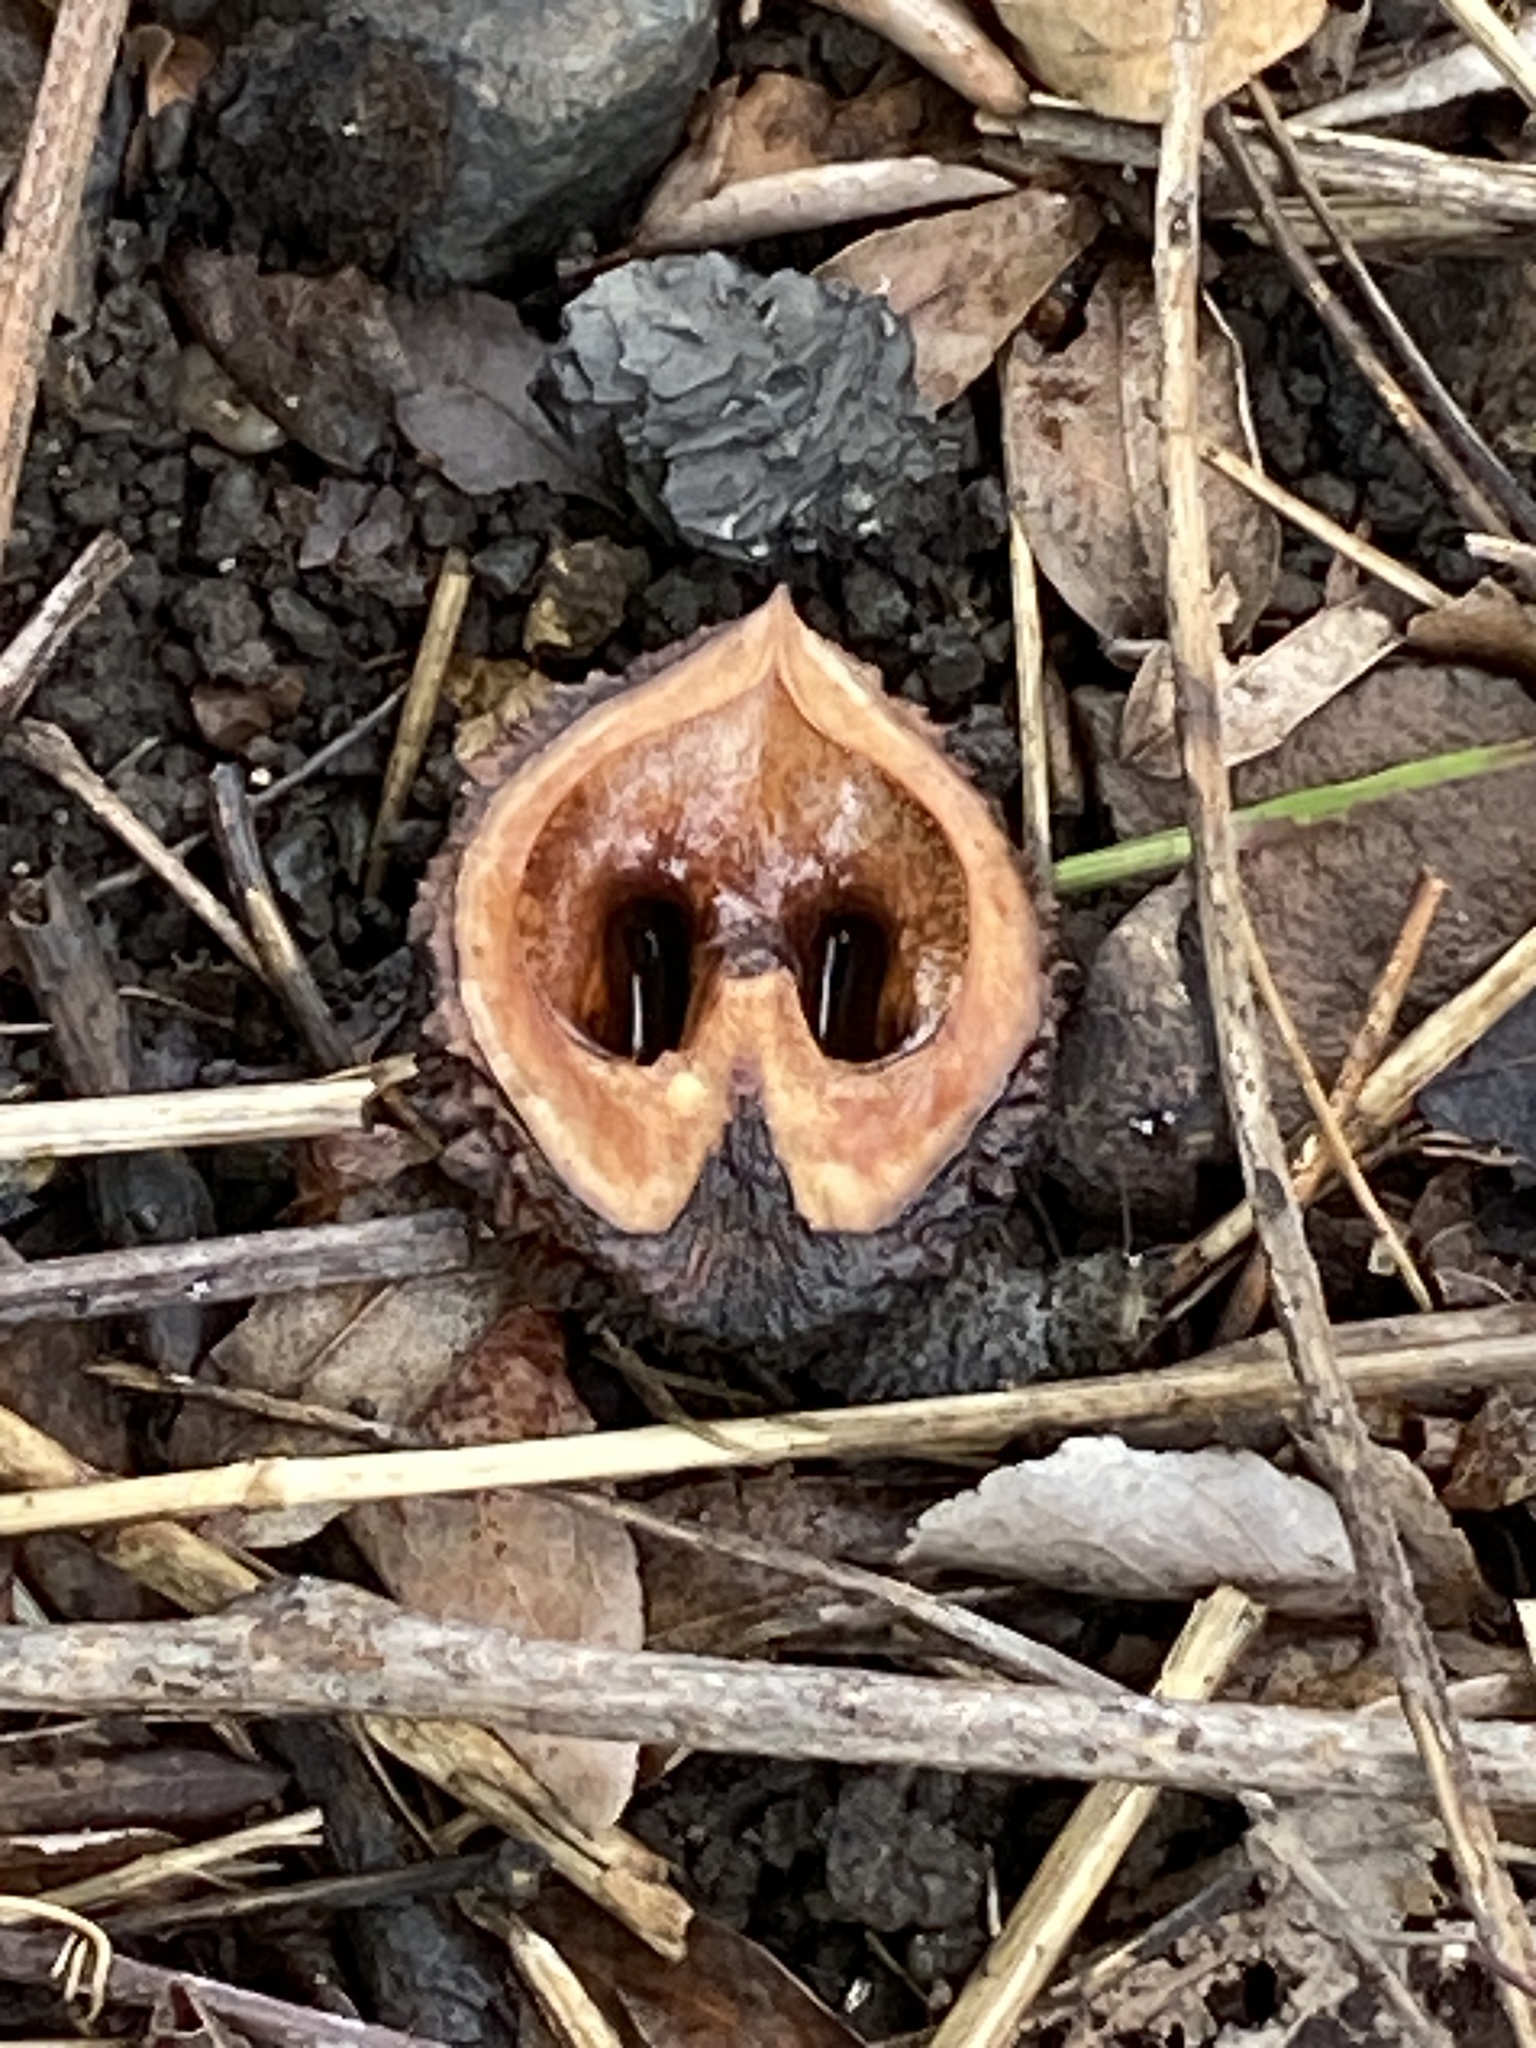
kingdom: Plantae
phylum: Tracheophyta
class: Magnoliopsida
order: Fagales
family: Juglandaceae
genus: Juglans
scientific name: Juglans nigra
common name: Black walnut
